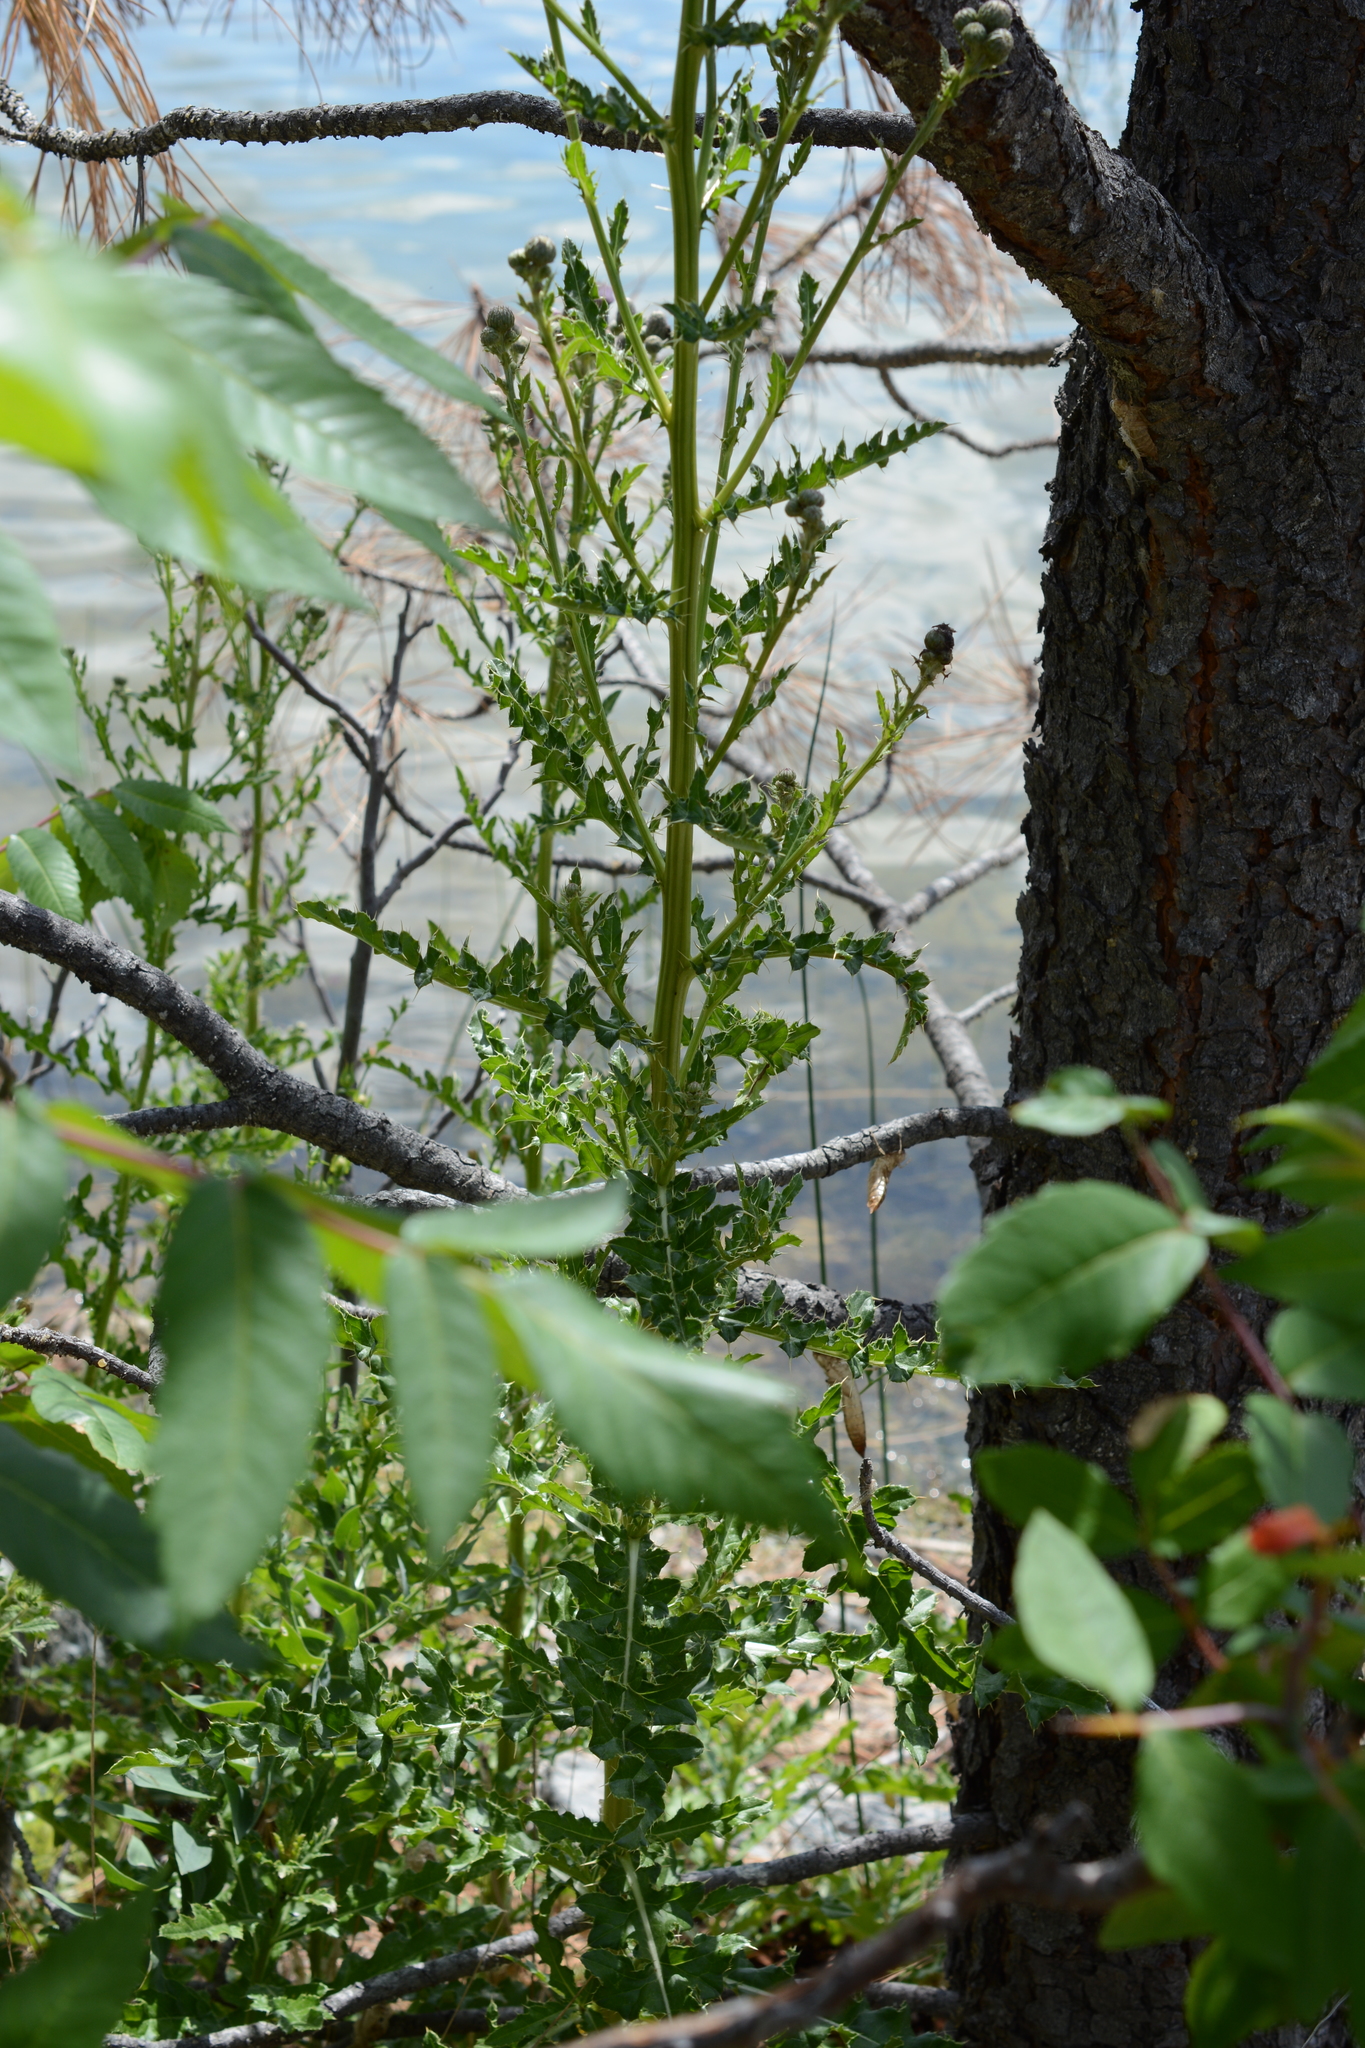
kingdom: Plantae
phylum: Tracheophyta
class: Magnoliopsida
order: Asterales
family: Asteraceae
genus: Cirsium
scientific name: Cirsium arvense
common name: Creeping thistle
